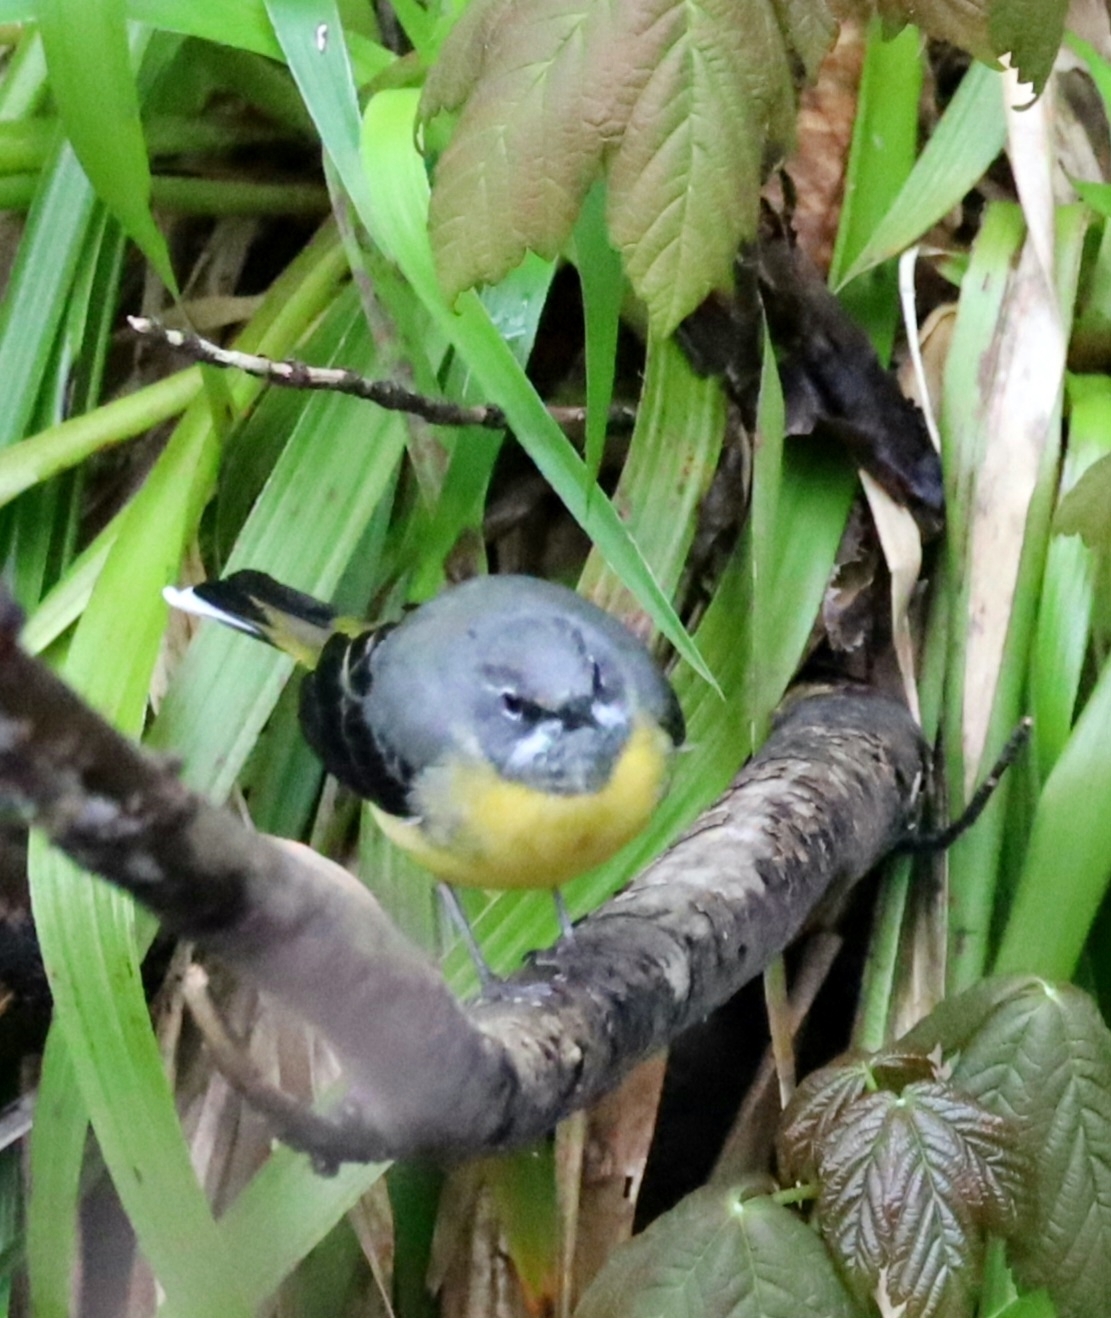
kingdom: Animalia
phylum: Chordata
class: Aves
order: Passeriformes
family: Motacillidae
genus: Motacilla
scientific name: Motacilla cinerea
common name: Grey wagtail
